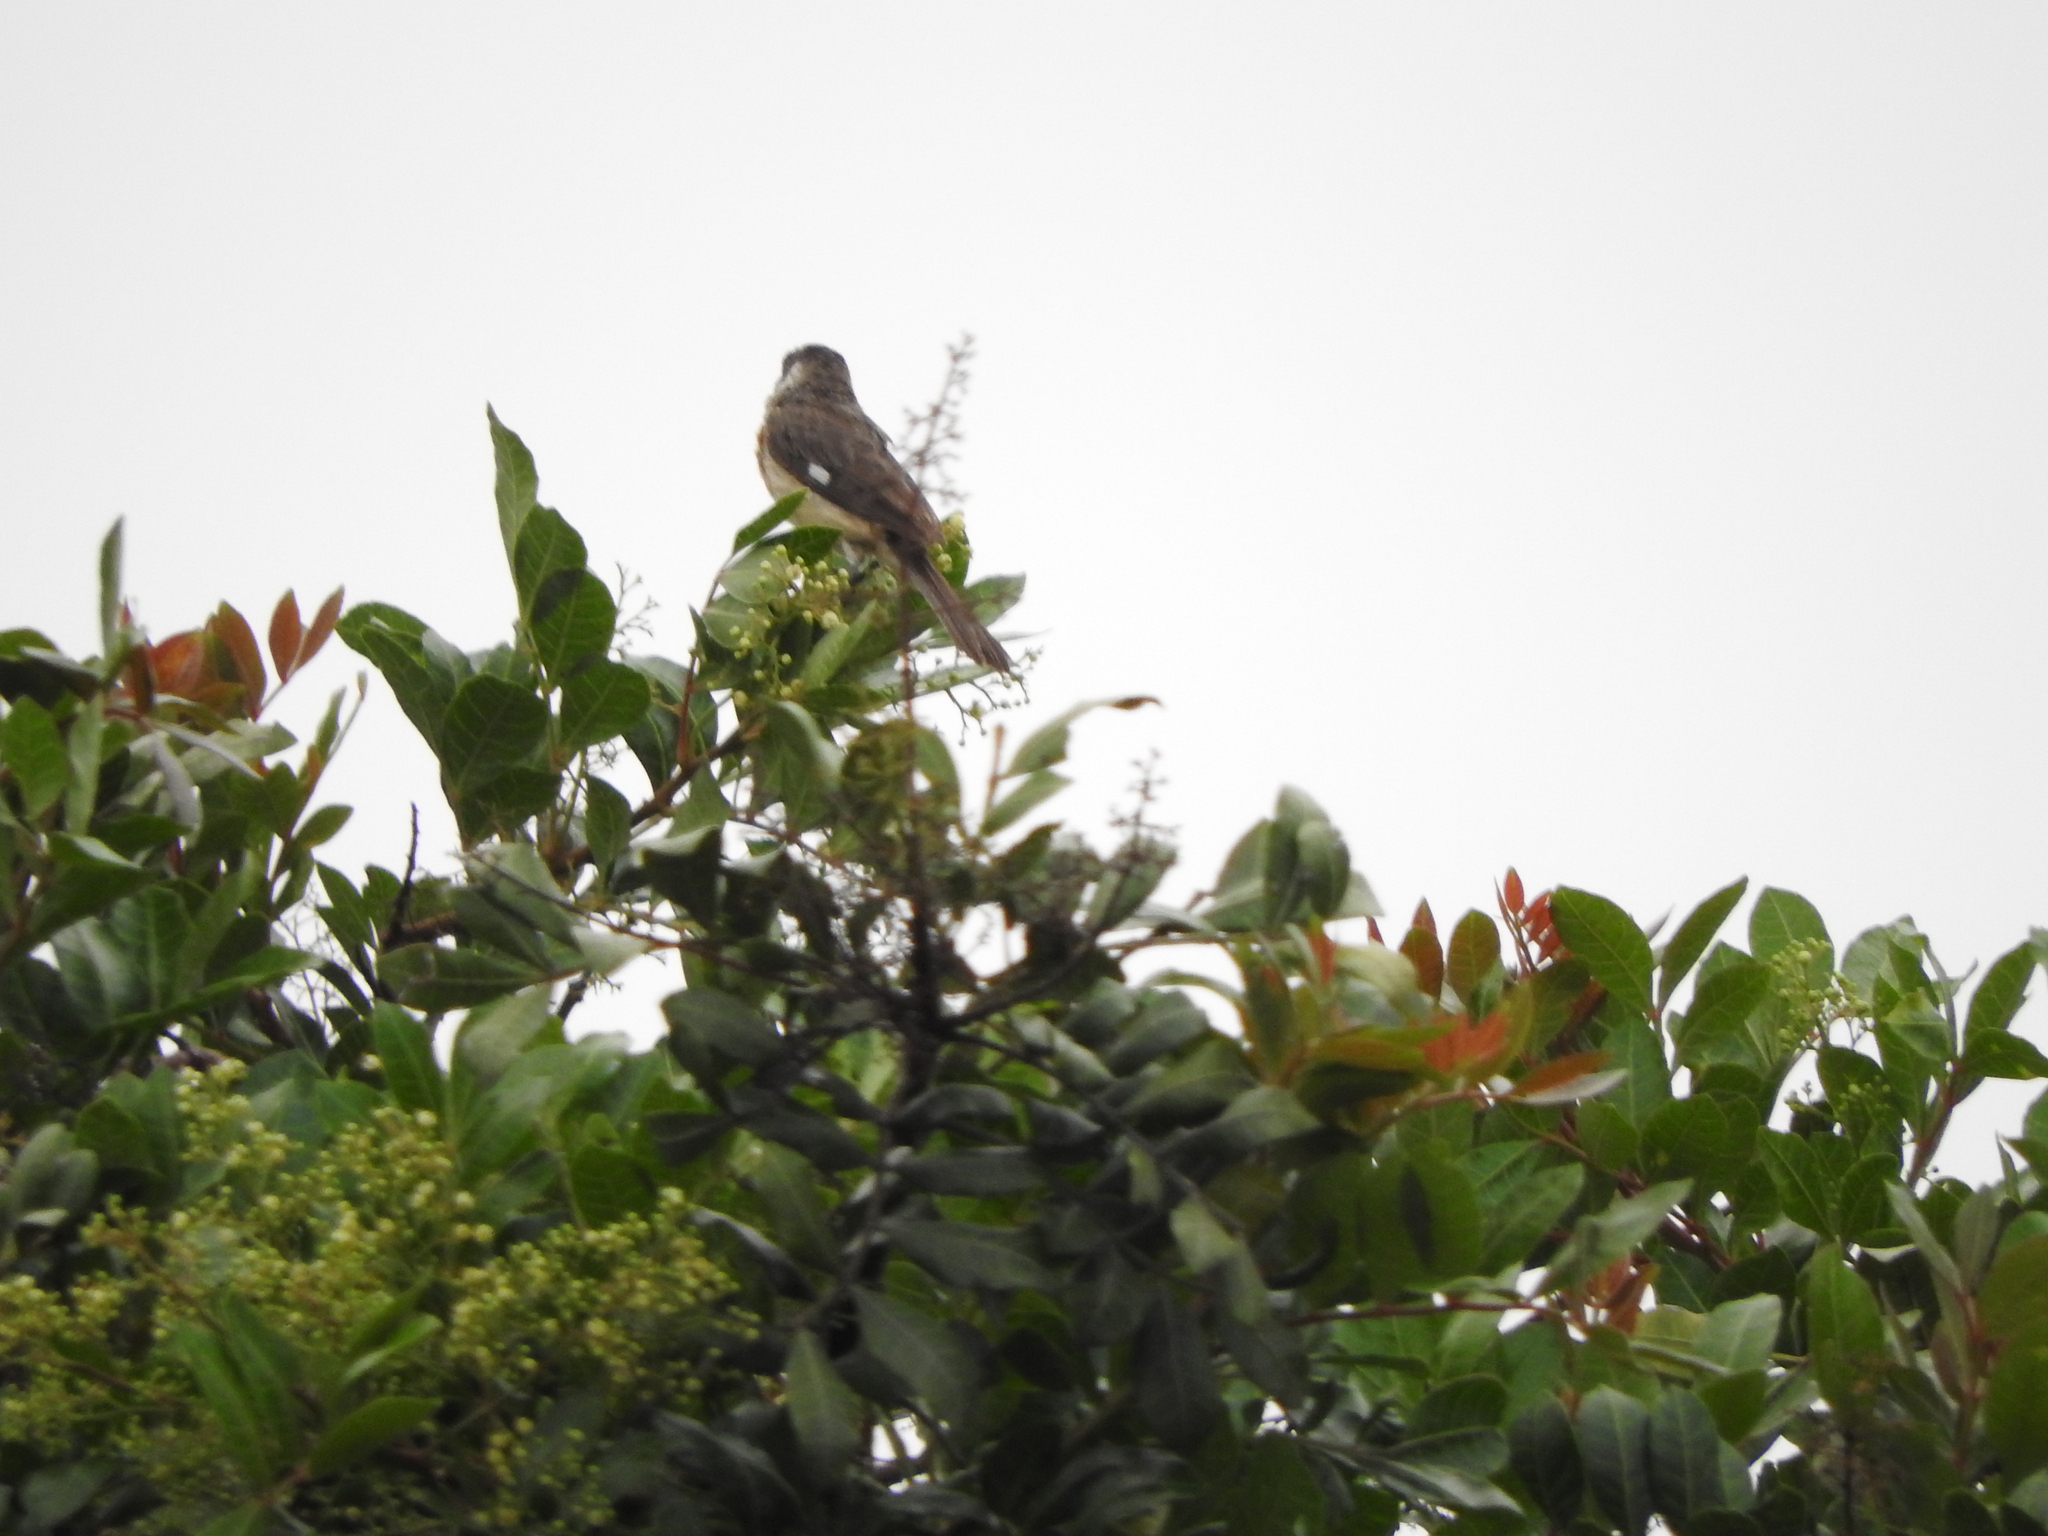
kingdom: Animalia
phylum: Chordata
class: Aves
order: Passeriformes
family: Thraupidae
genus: Sporophila
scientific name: Sporophila torqueola
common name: White-collared seedeater
